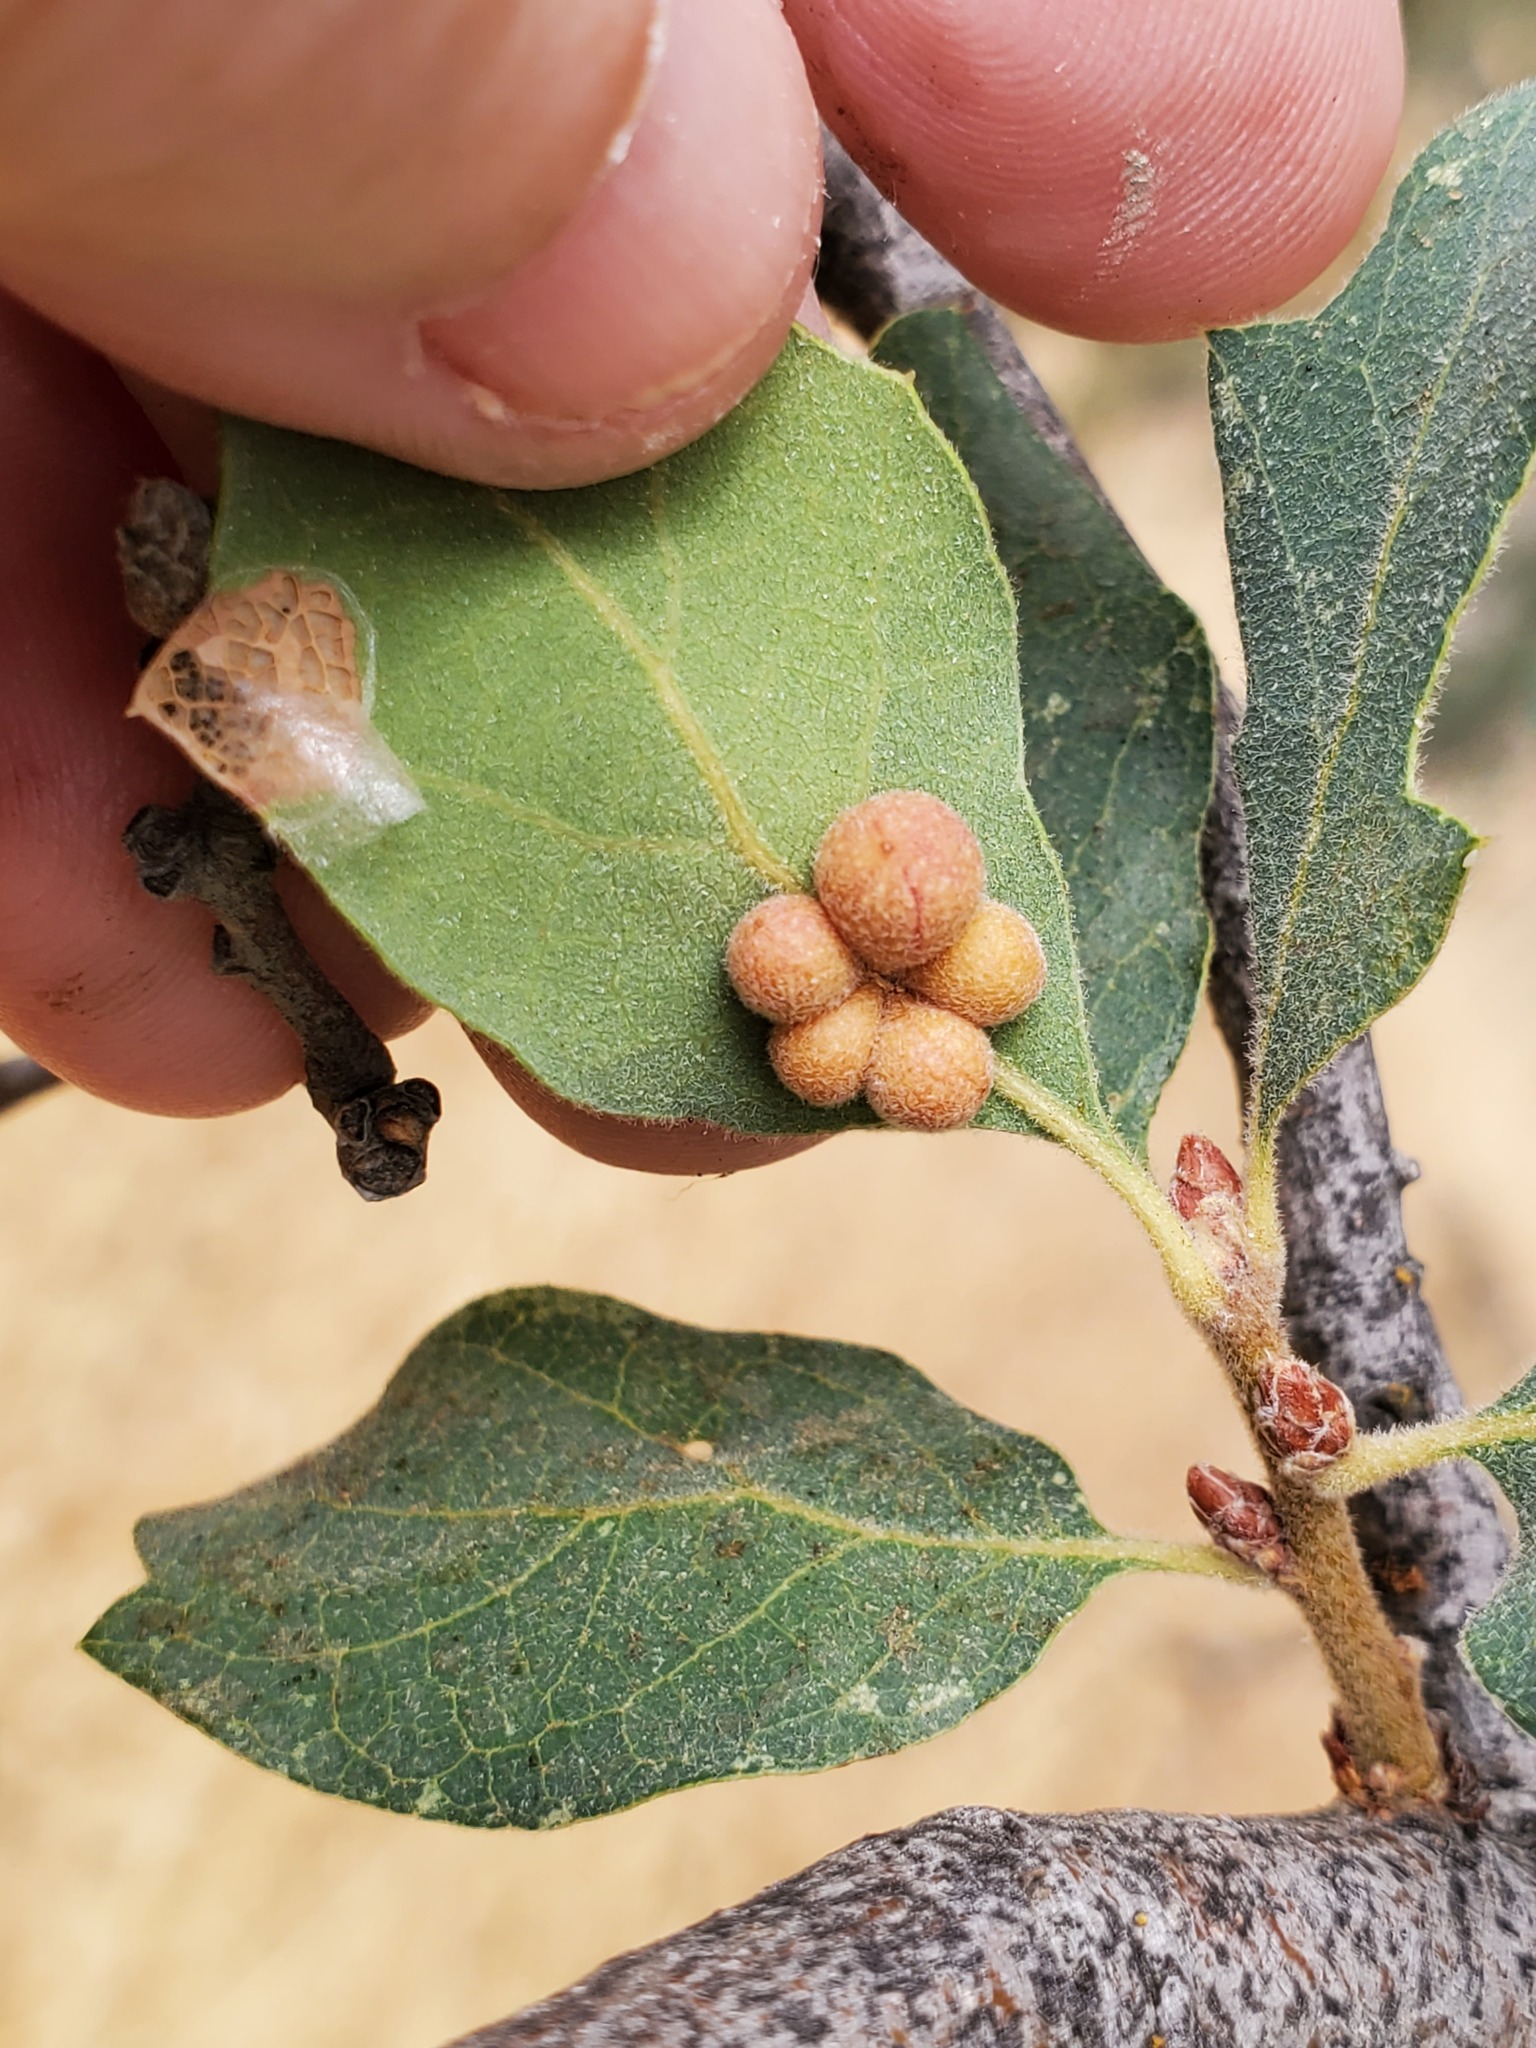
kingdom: Animalia
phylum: Arthropoda
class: Insecta
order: Hymenoptera
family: Cynipidae
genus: Andricus
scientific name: Andricus
